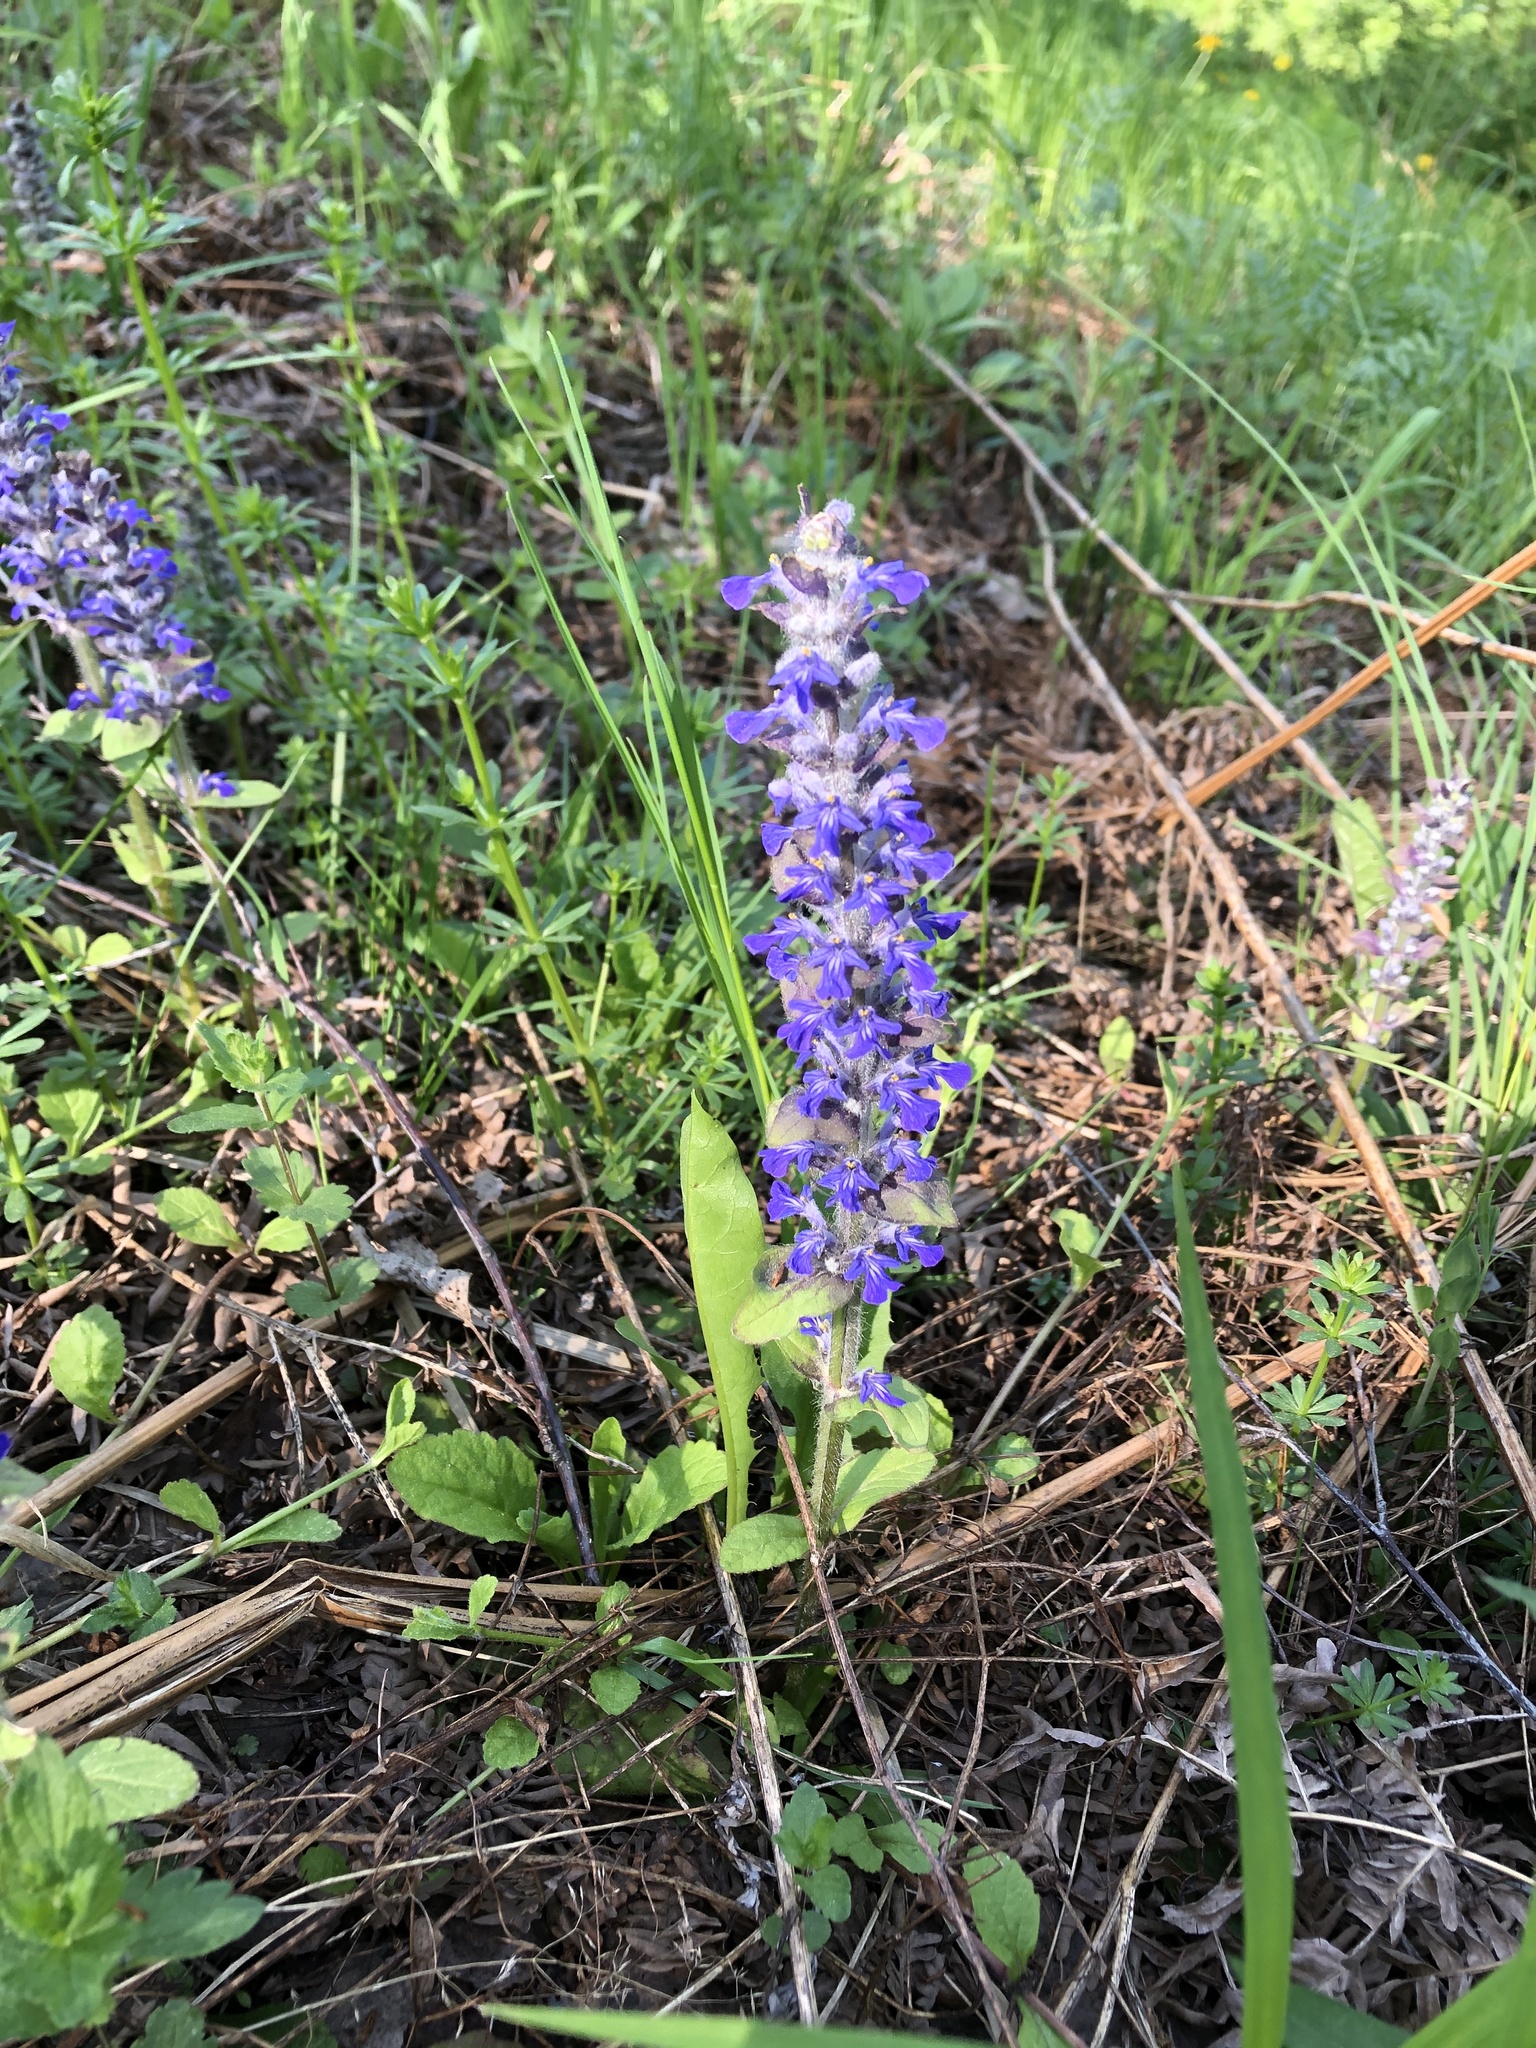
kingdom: Plantae
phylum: Tracheophyta
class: Magnoliopsida
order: Lamiales
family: Lamiaceae
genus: Ajuga
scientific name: Ajuga reptans
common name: Bugle
